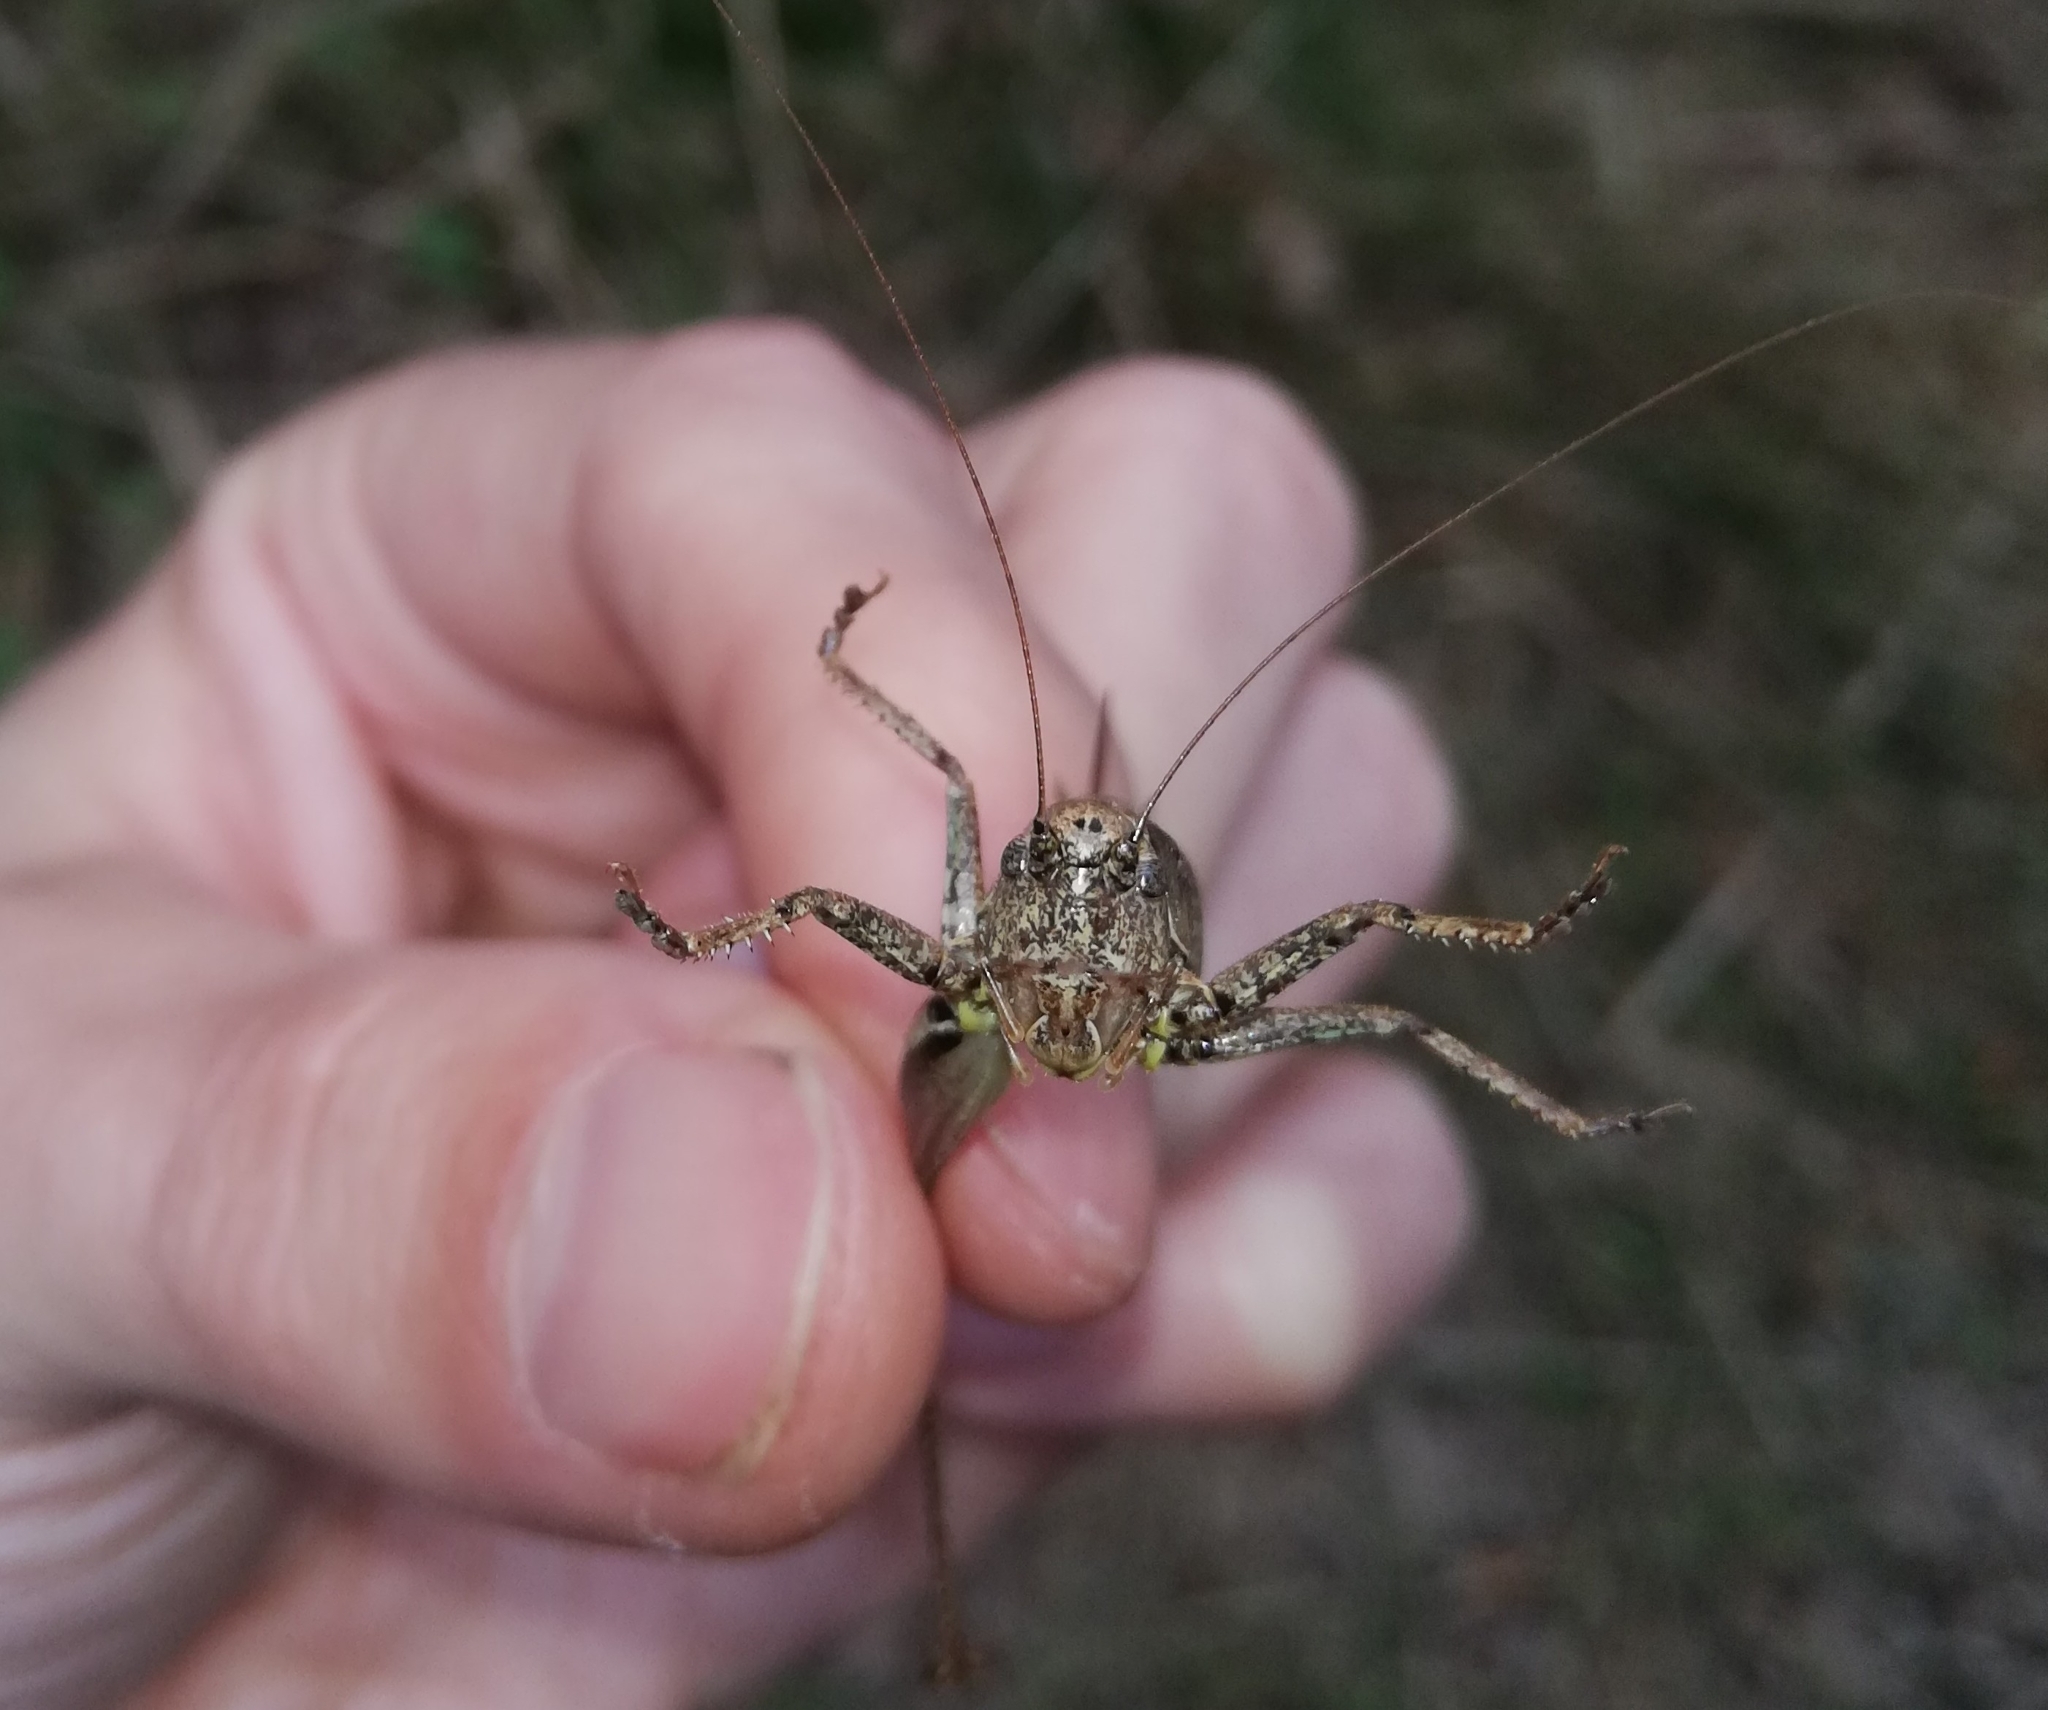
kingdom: Animalia
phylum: Arthropoda
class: Insecta
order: Orthoptera
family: Tettigoniidae
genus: Pholidoptera
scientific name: Pholidoptera griseoaptera
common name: Dark bush-cricket
